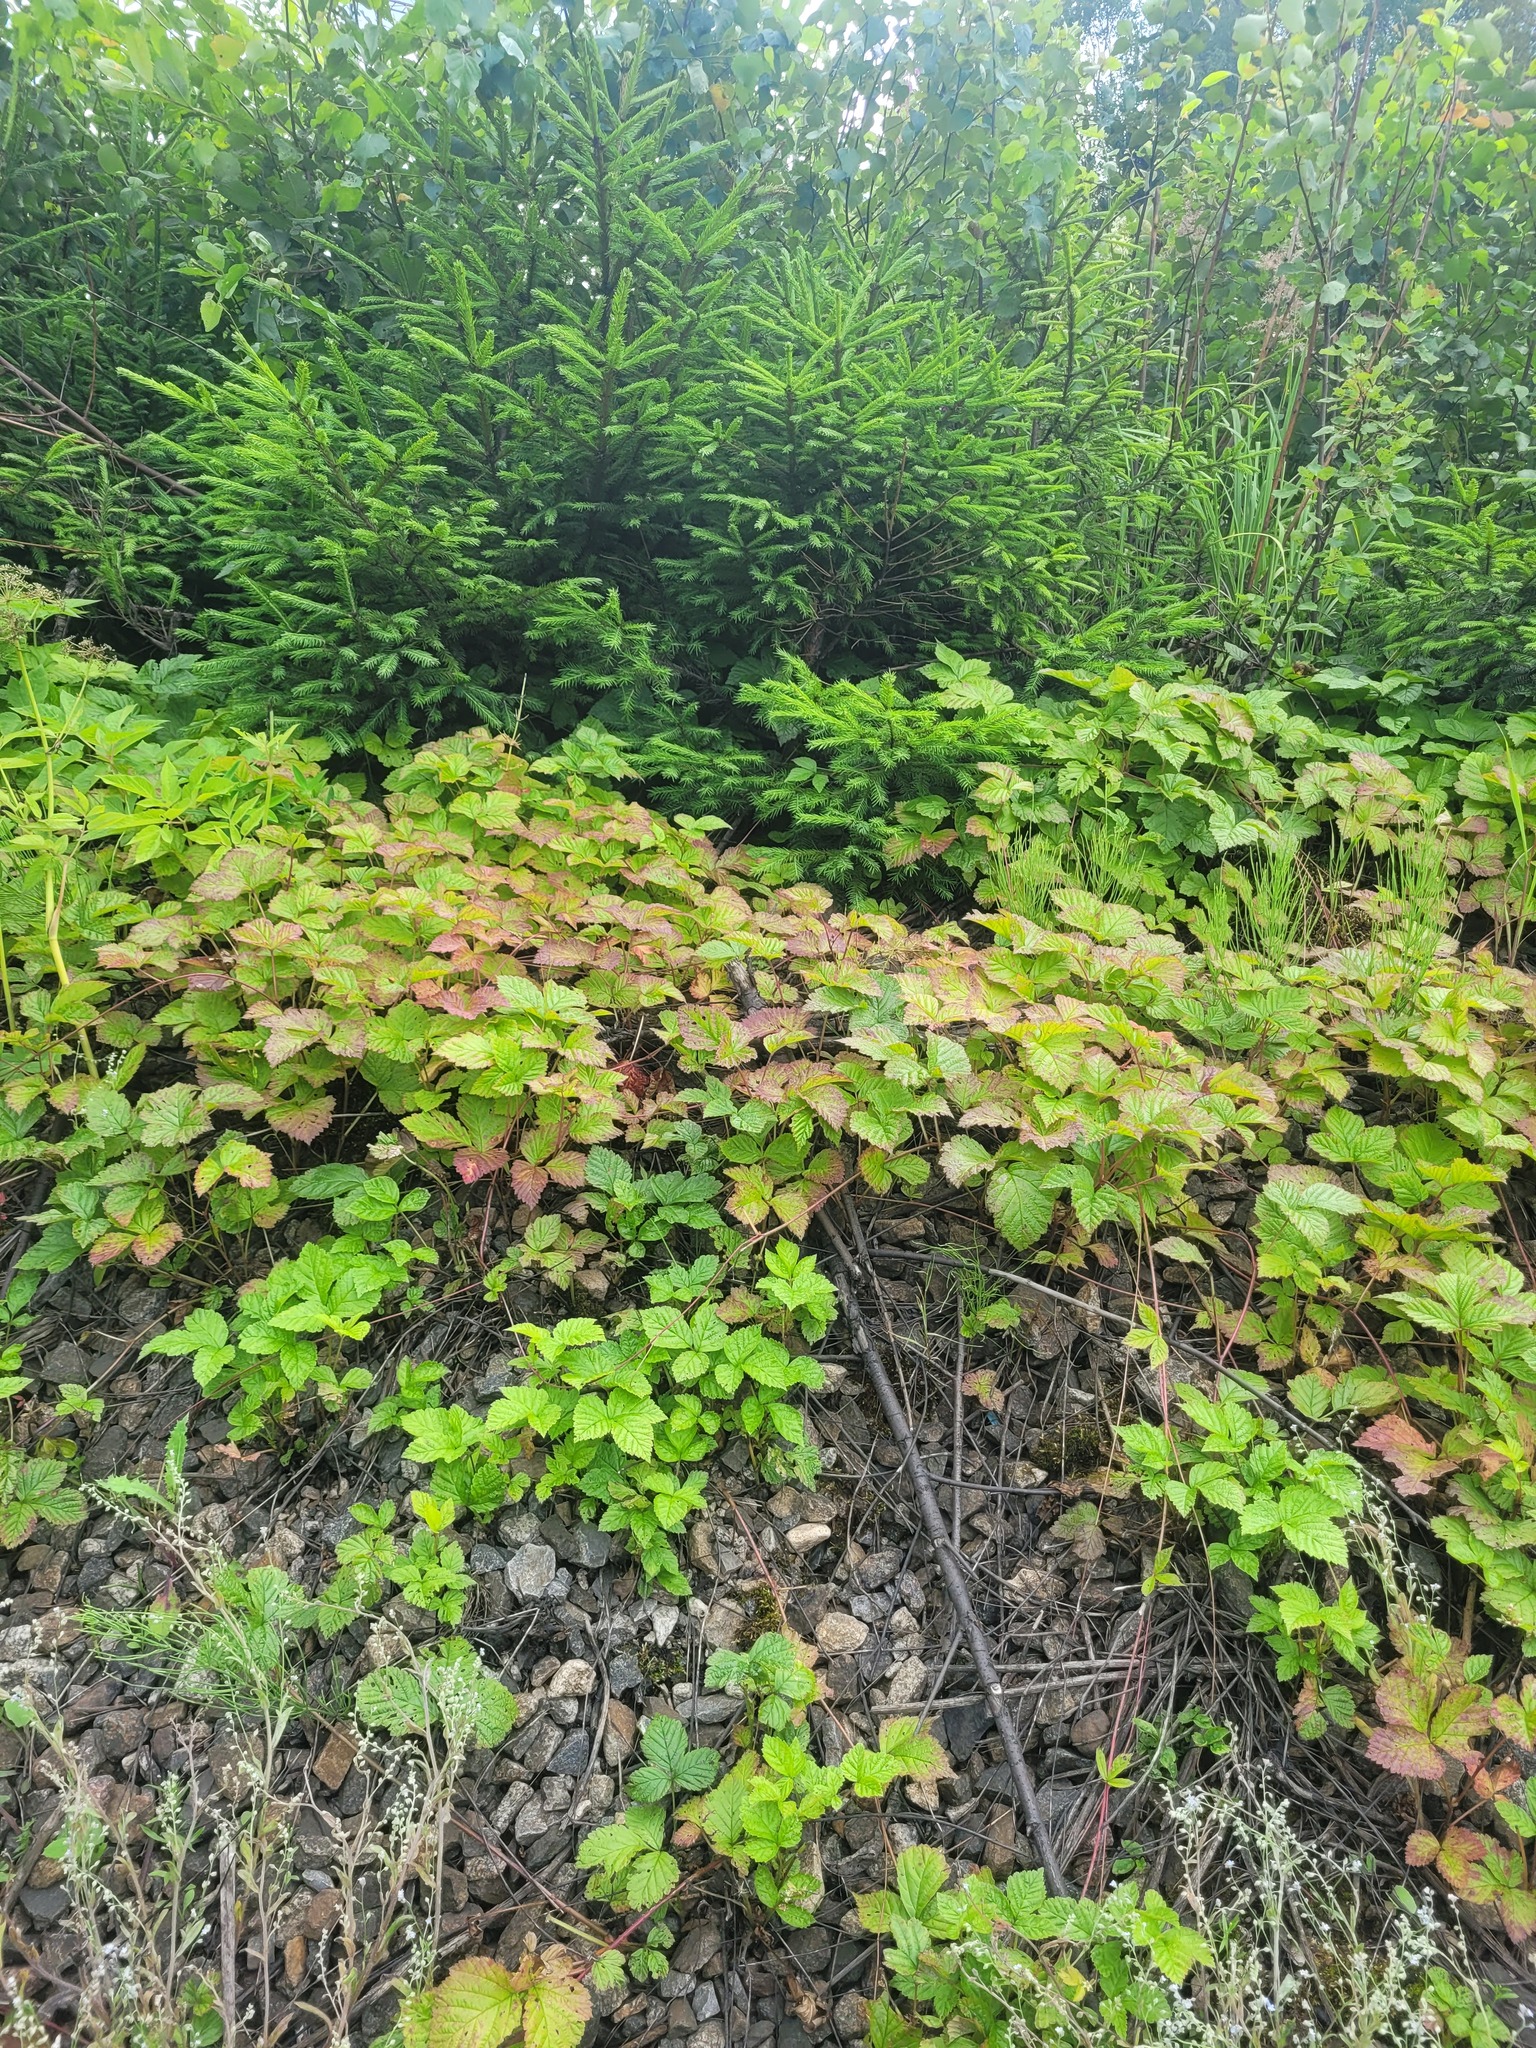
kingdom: Plantae
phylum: Tracheophyta
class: Magnoliopsida
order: Rosales
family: Rosaceae
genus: Rubus
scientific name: Rubus saxatilis
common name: Stone bramble
